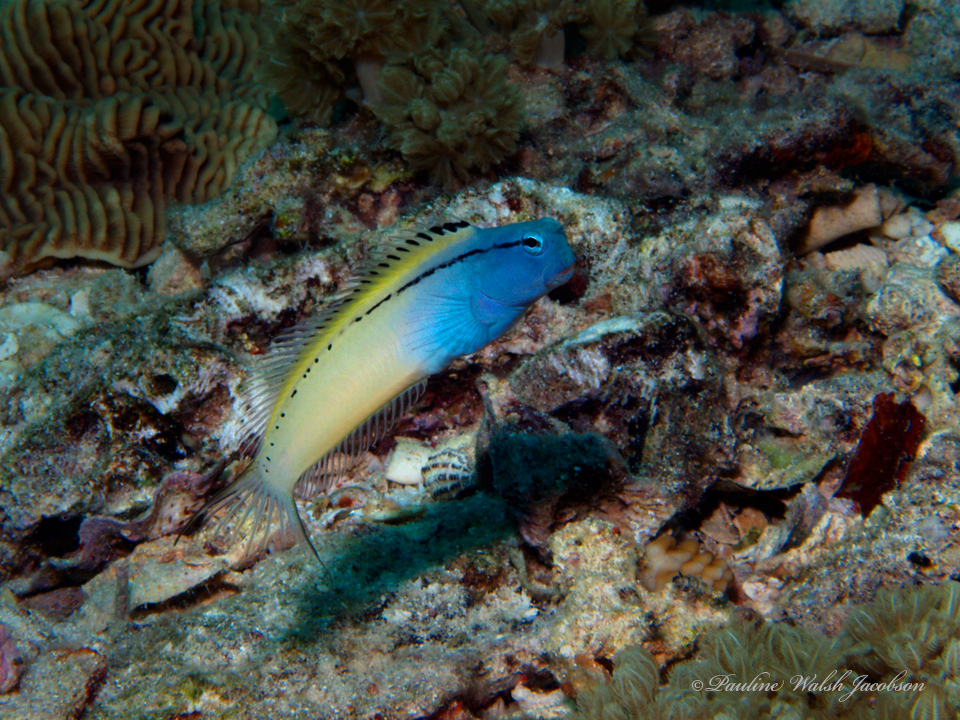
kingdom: Animalia
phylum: Chordata
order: Perciformes
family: Blenniidae
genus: Ecsenius
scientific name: Ecsenius gravieri
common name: Red sea mimic blenny
